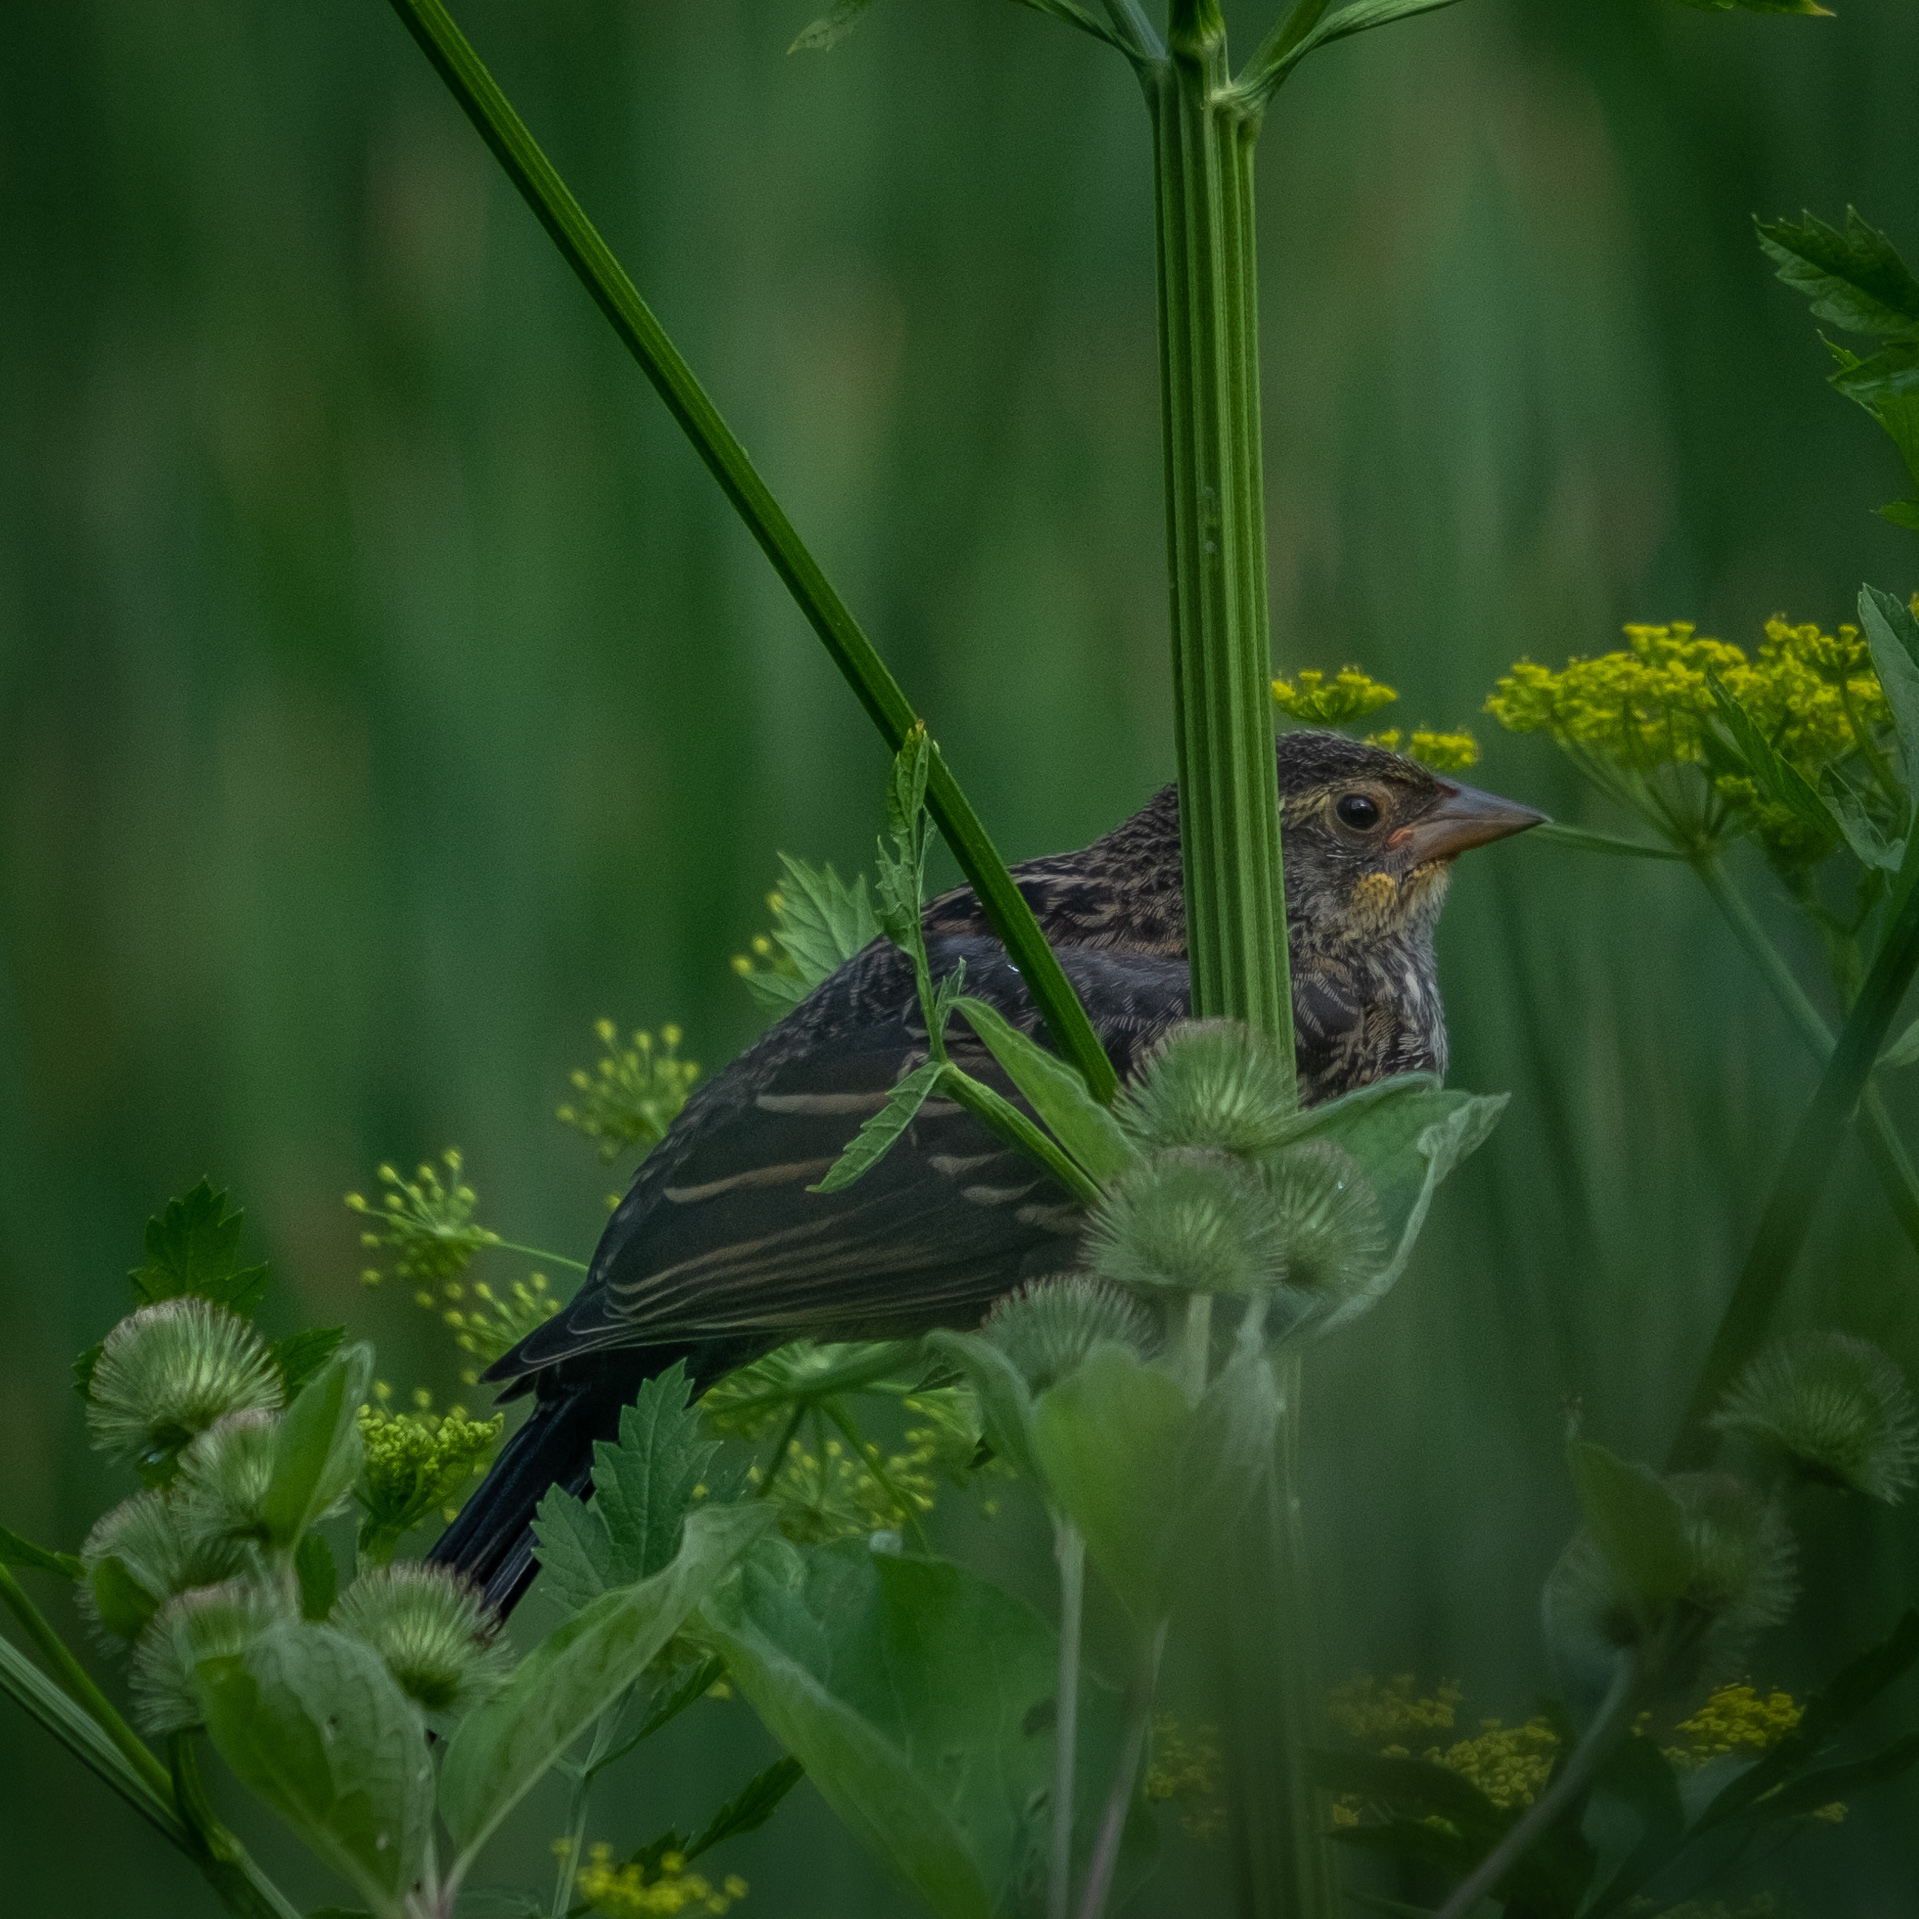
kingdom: Animalia
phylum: Chordata
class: Aves
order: Passeriformes
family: Icteridae
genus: Agelaius
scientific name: Agelaius phoeniceus
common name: Red-winged blackbird
